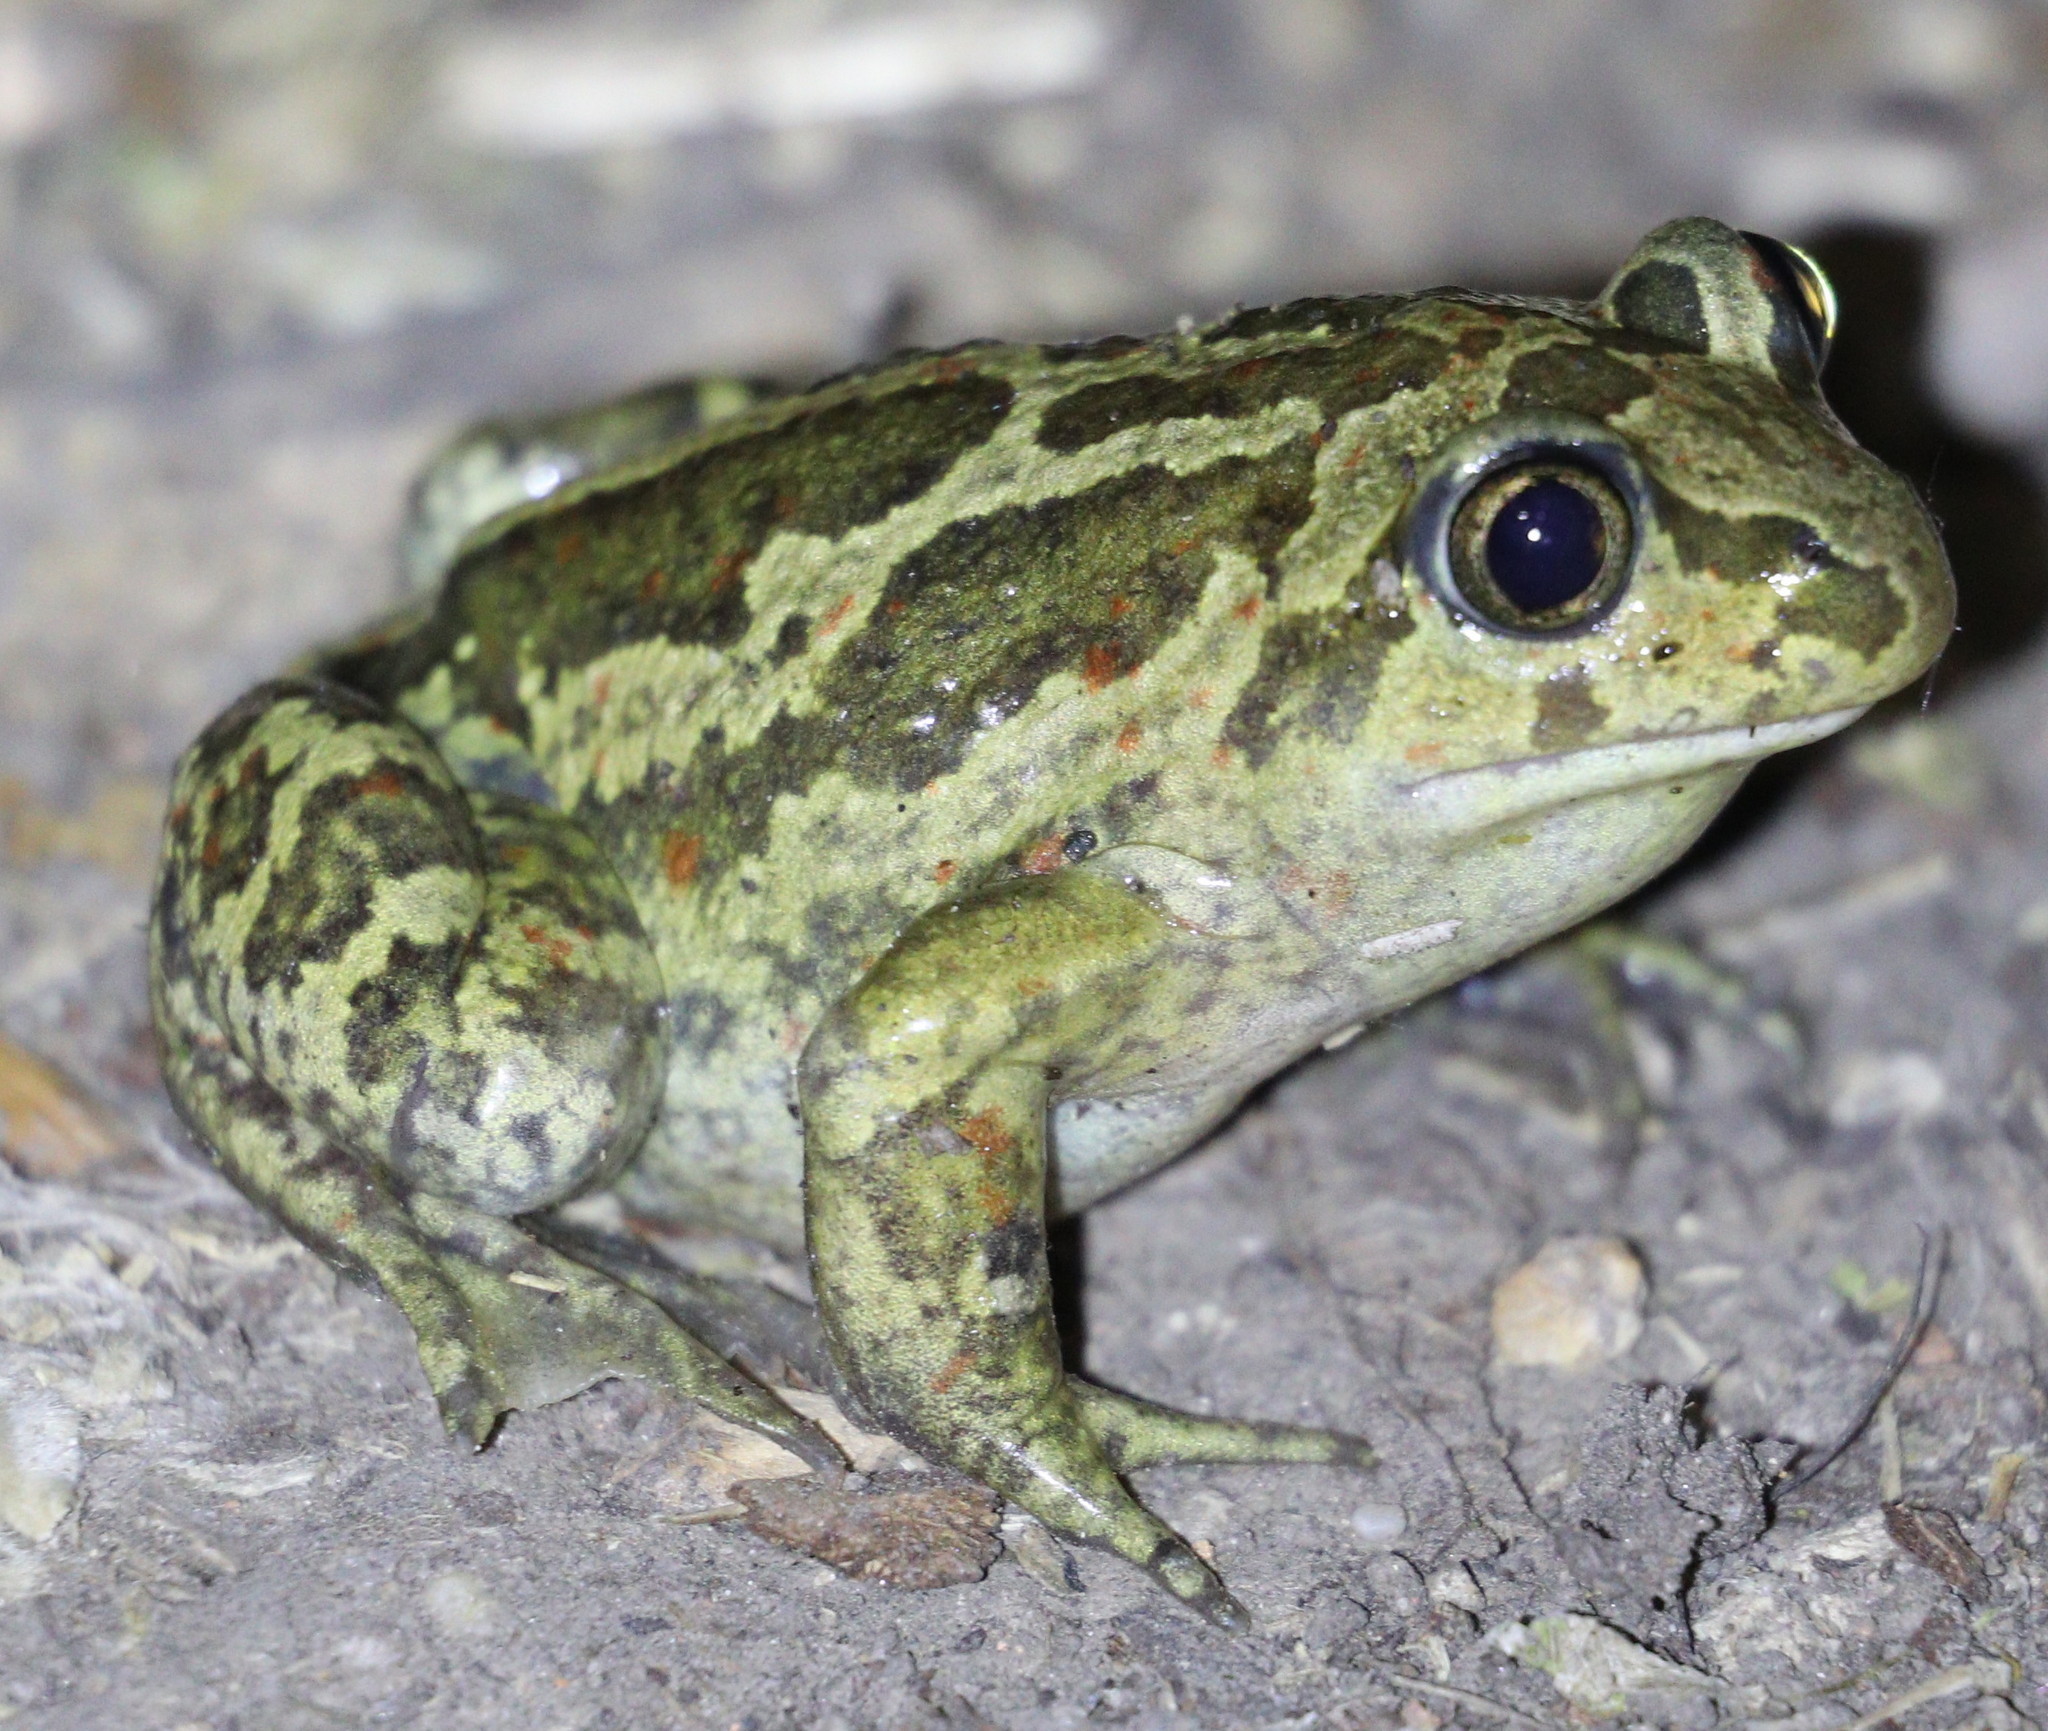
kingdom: Animalia
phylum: Chordata
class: Amphibia
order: Anura
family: Pelobatidae
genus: Pelobates
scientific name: Pelobates fuscus
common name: Common eurasian spadefoot toad
